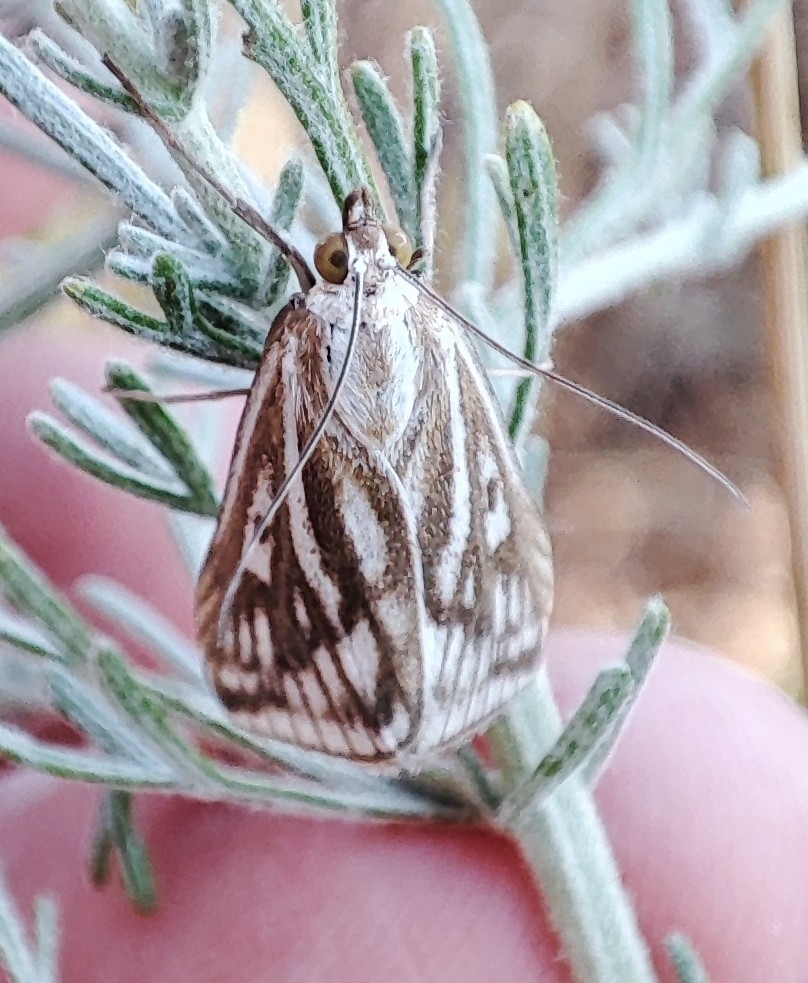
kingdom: Animalia
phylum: Arthropoda
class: Insecta
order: Lepidoptera
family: Crambidae
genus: Loxostege
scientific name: Loxostege clathralis
